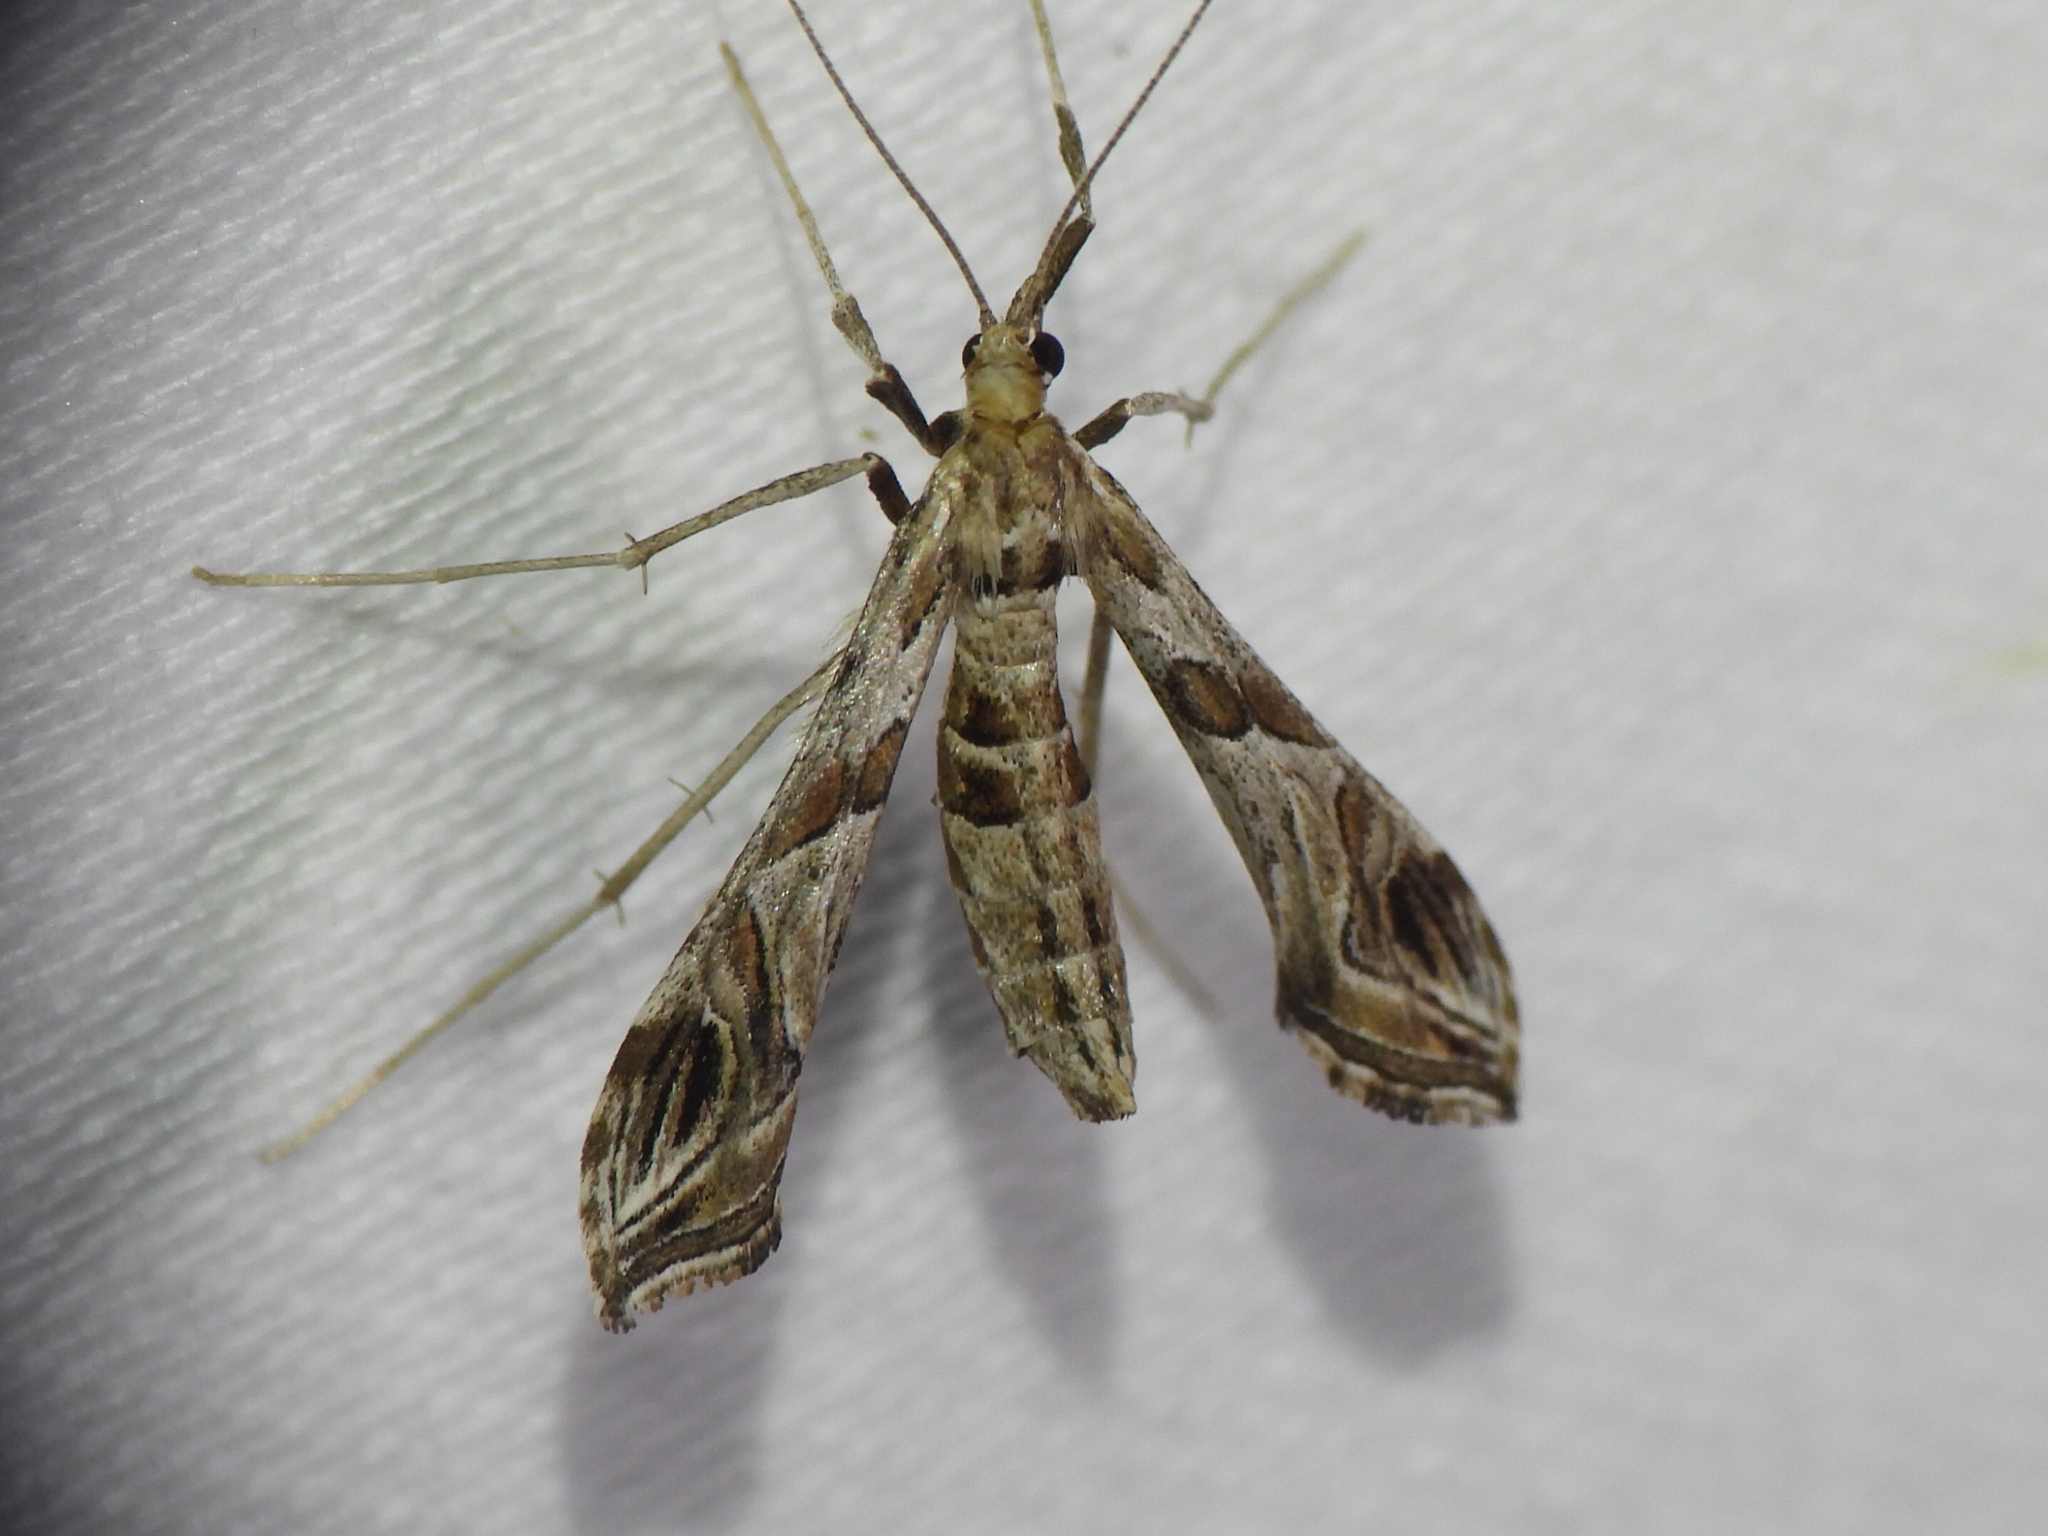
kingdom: Animalia
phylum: Arthropoda
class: Insecta
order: Lepidoptera
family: Crambidae
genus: Lineodes
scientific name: Lineodes interrupta
